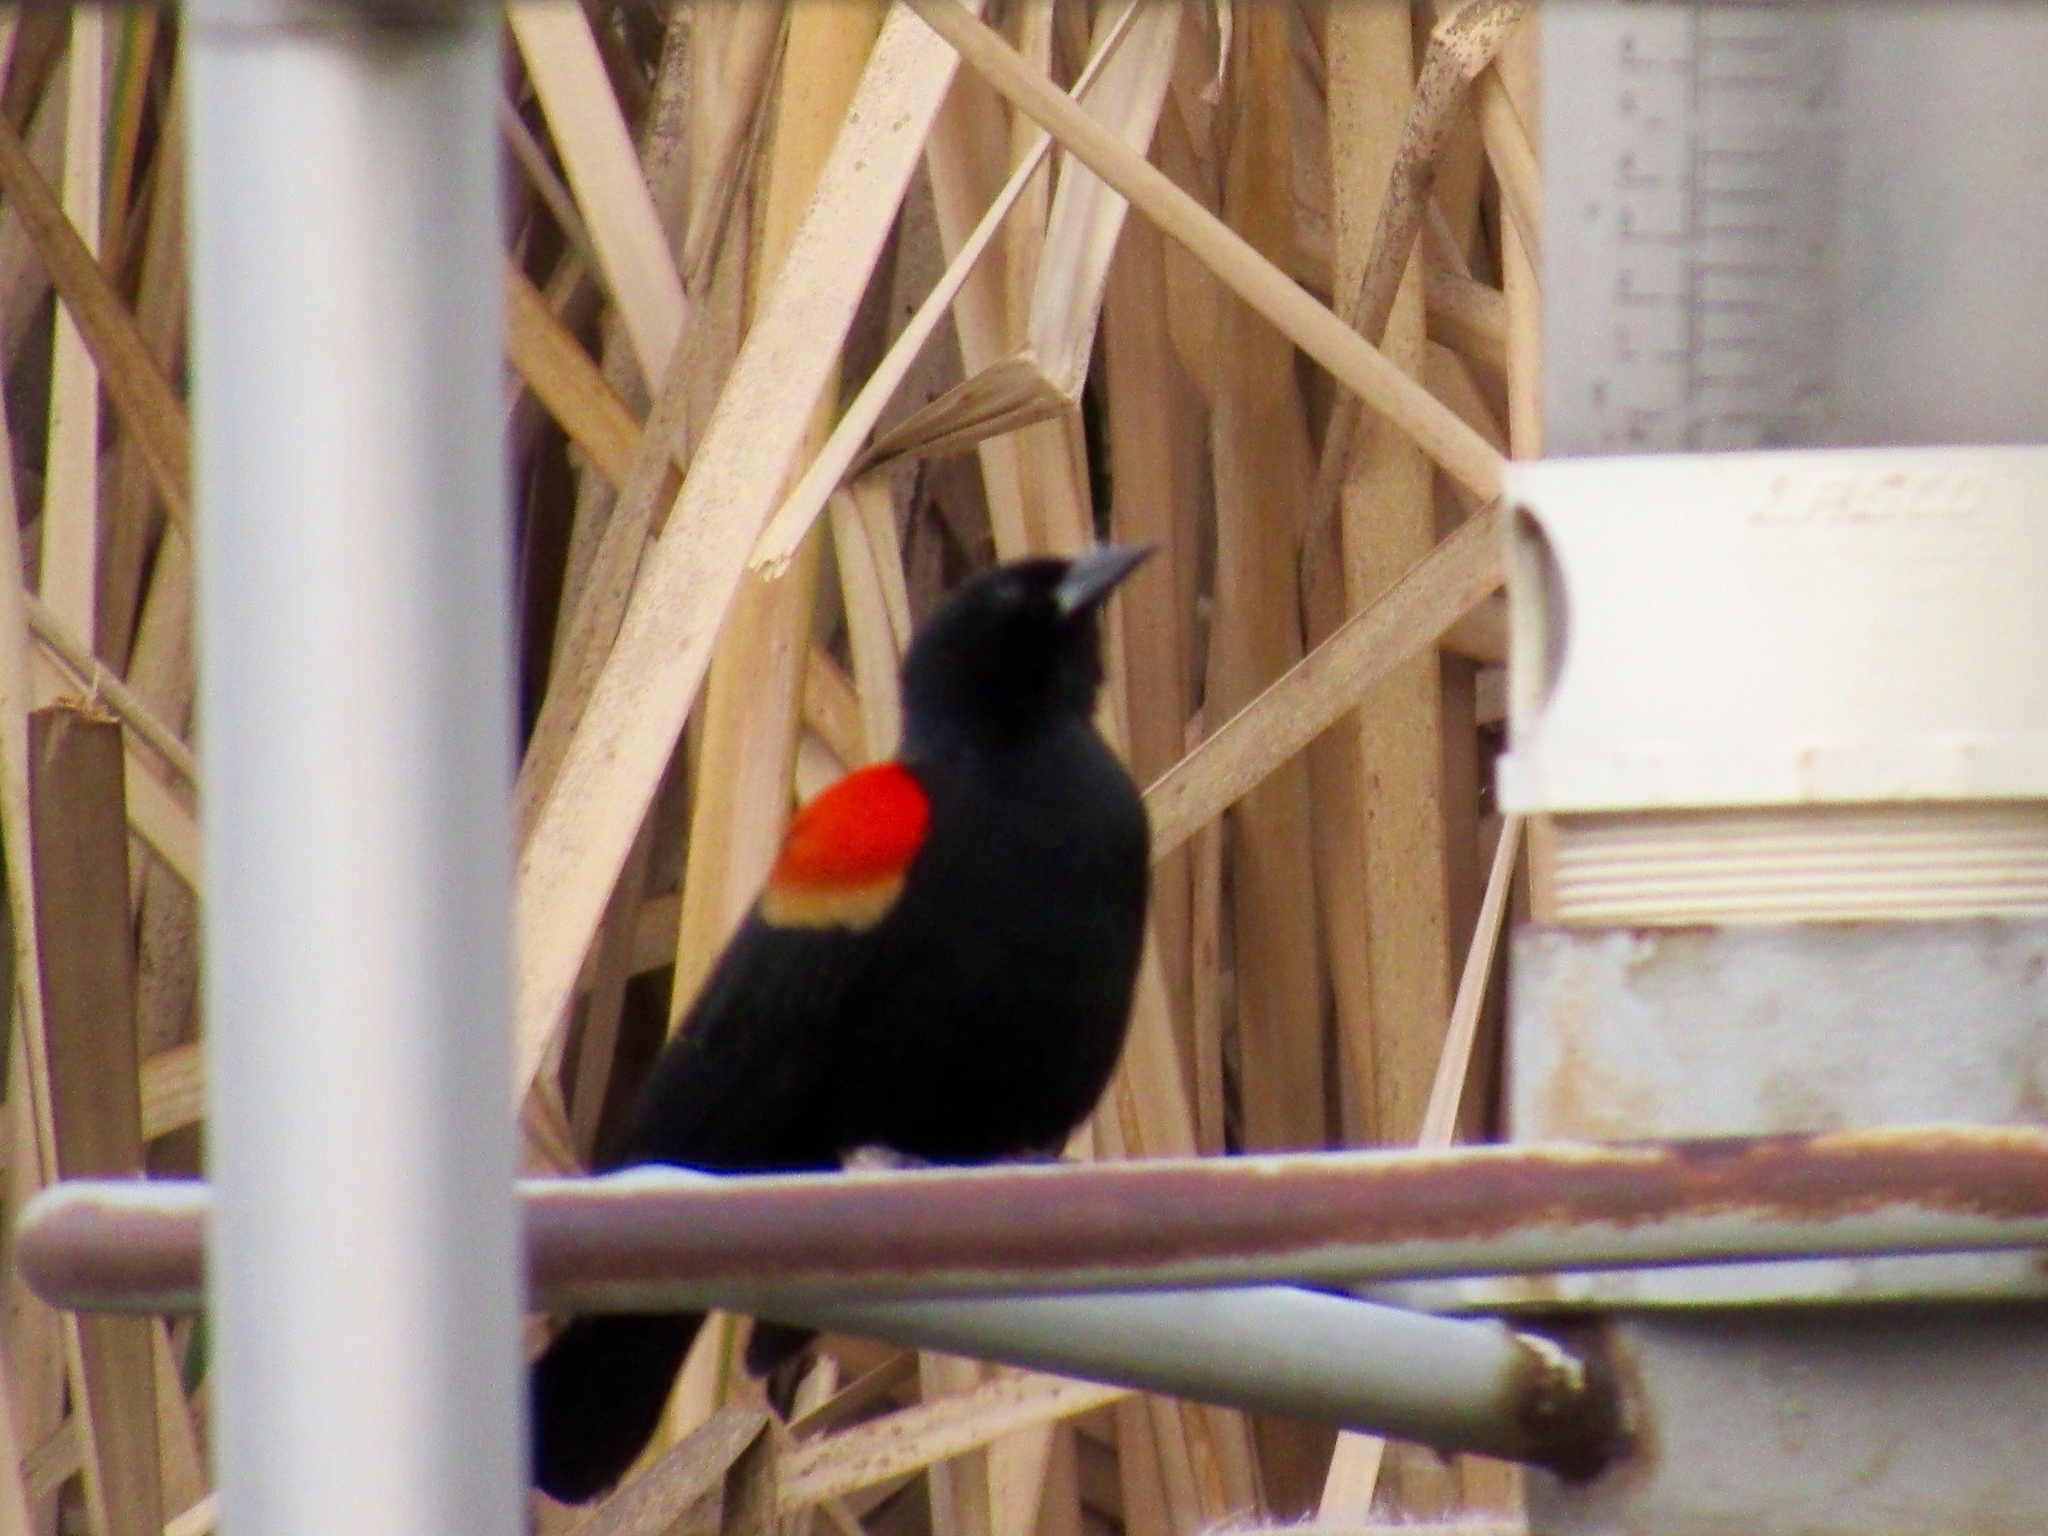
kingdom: Animalia
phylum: Chordata
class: Aves
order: Passeriformes
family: Icteridae
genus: Agelaius
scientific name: Agelaius phoeniceus
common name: Red-winged blackbird
